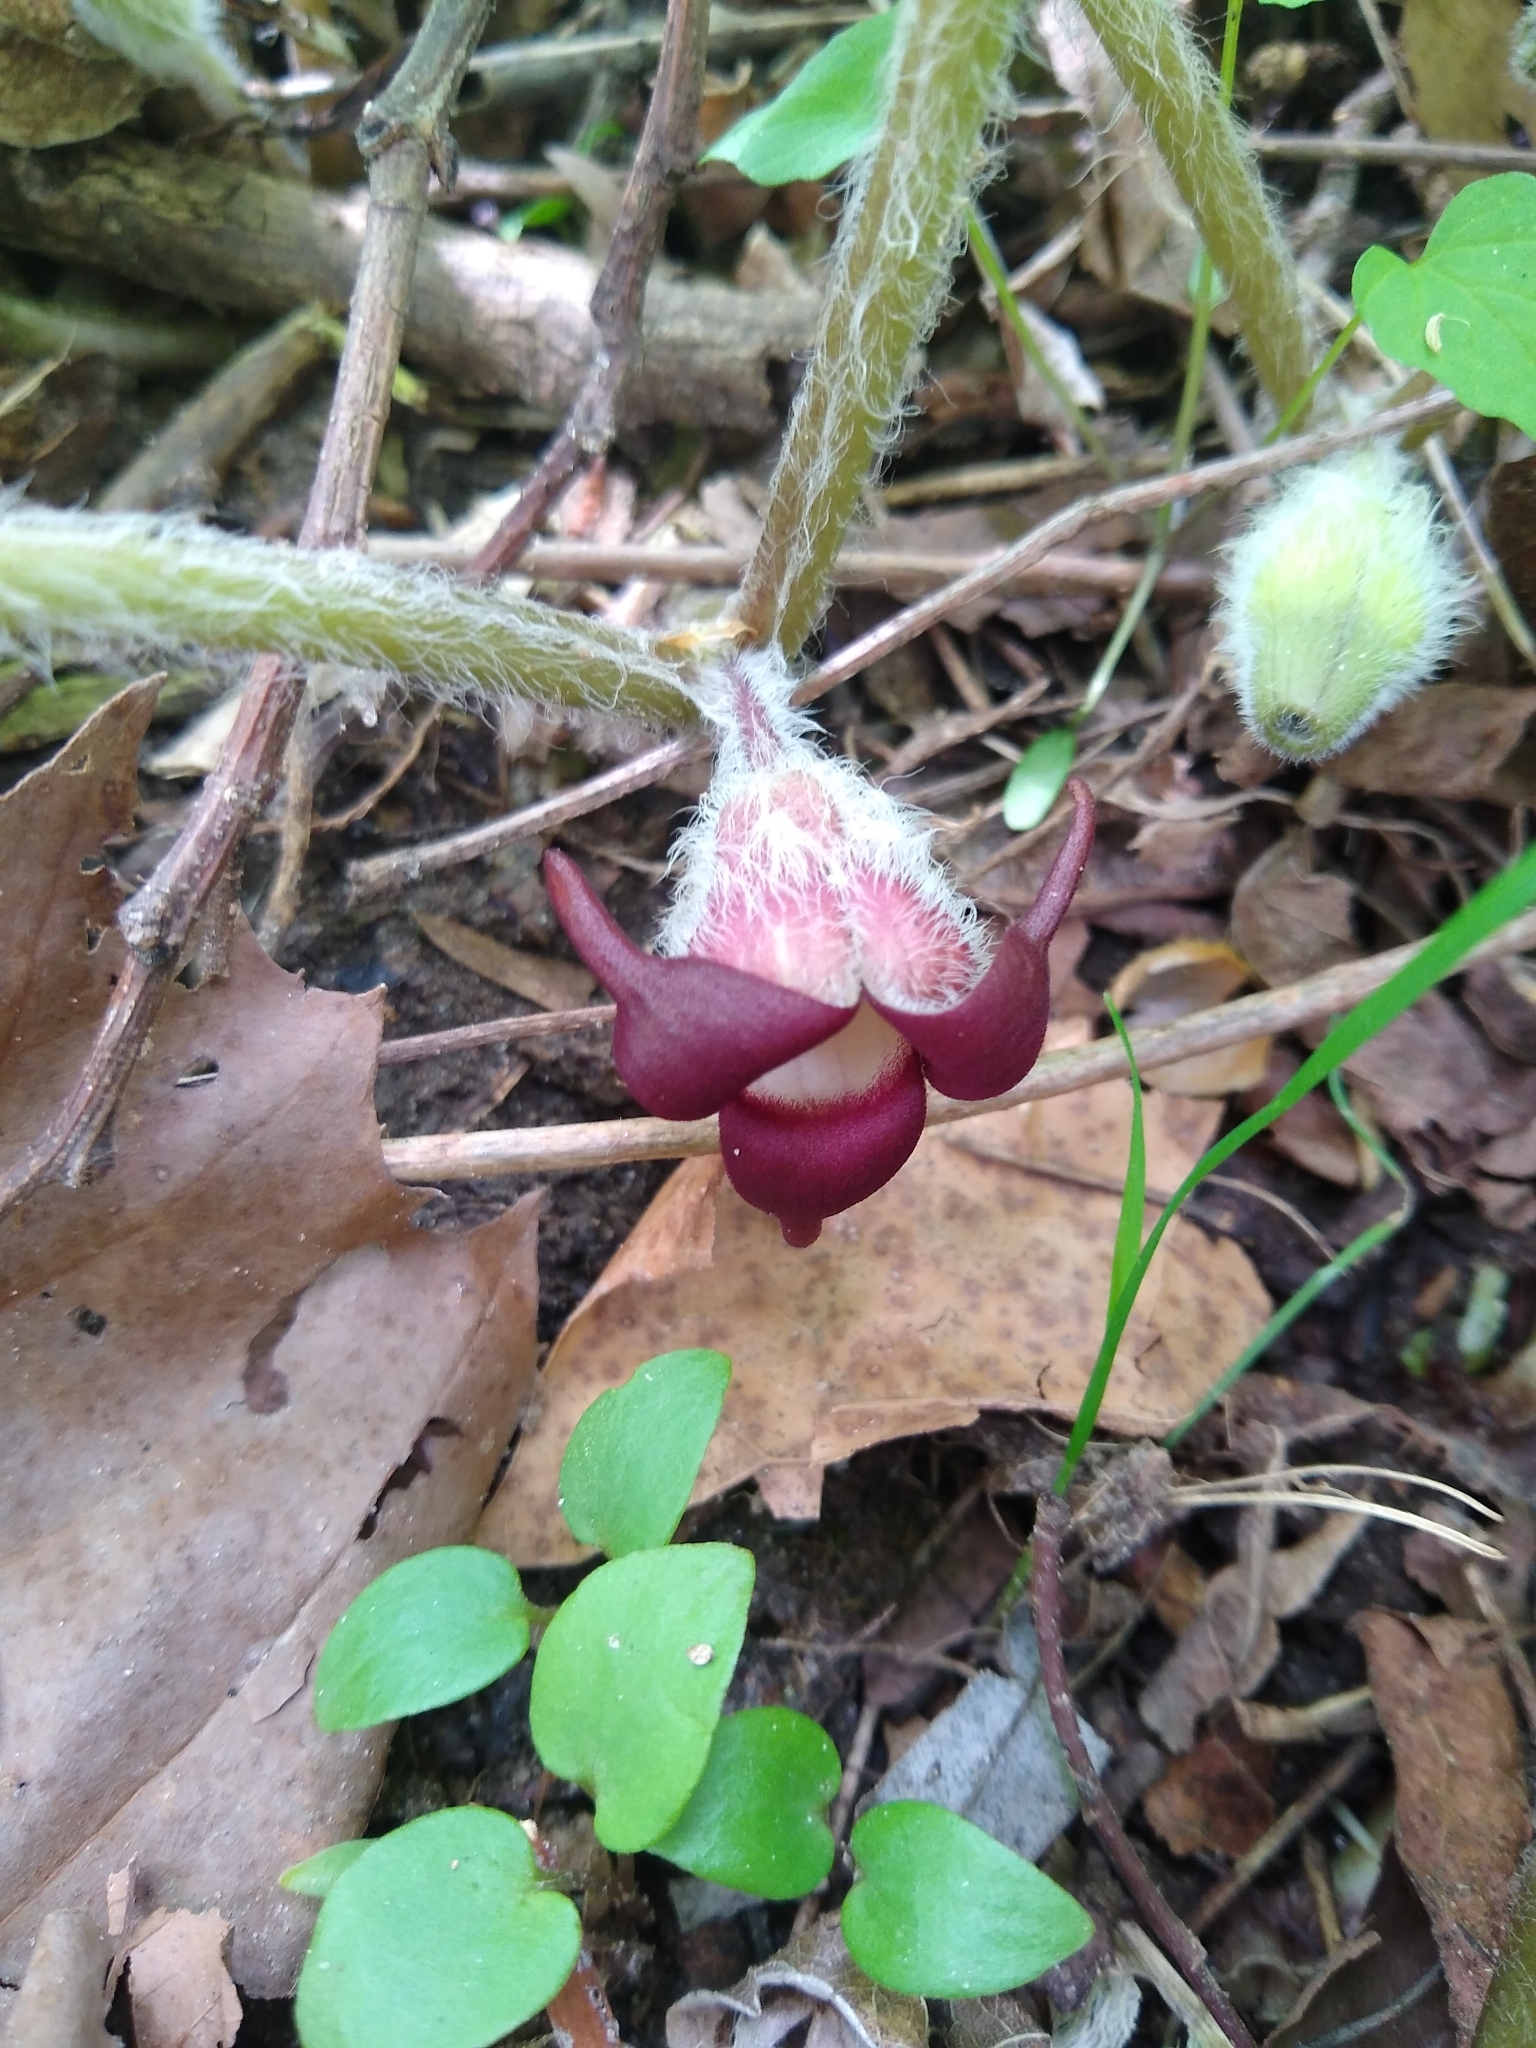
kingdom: Plantae
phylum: Tracheophyta
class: Magnoliopsida
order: Piperales
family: Aristolochiaceae
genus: Asarum
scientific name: Asarum canadense
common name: Wild ginger
